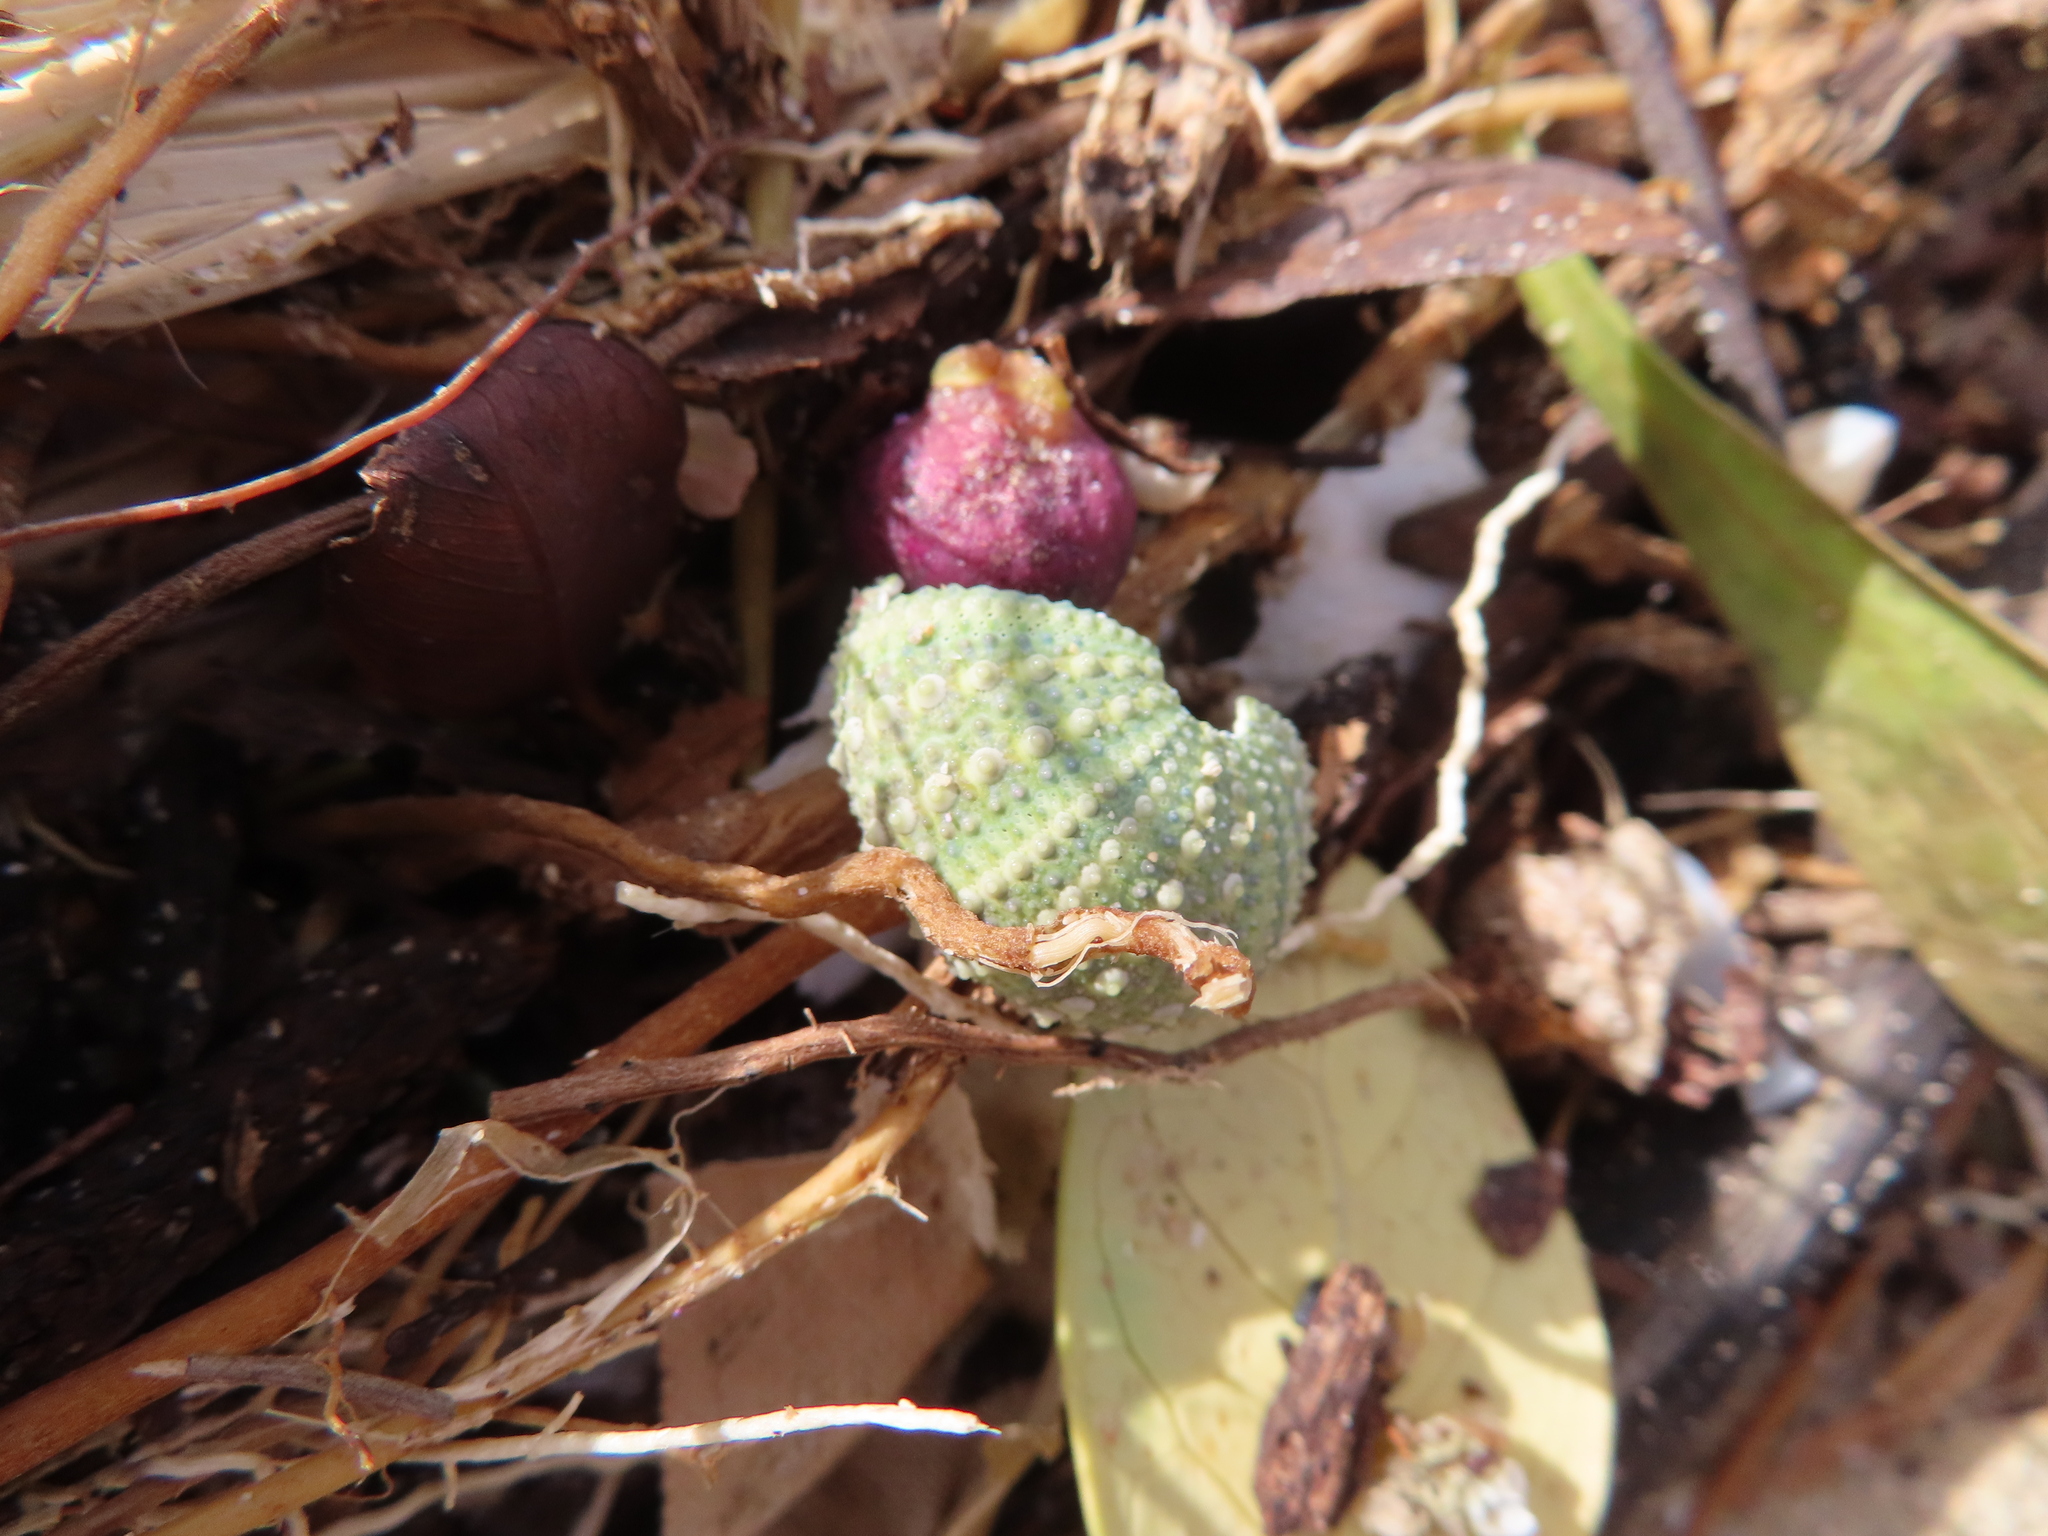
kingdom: Animalia
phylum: Echinodermata
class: Echinoidea
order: Camarodonta
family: Parechinidae
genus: Parechinus
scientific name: Parechinus angulosus
